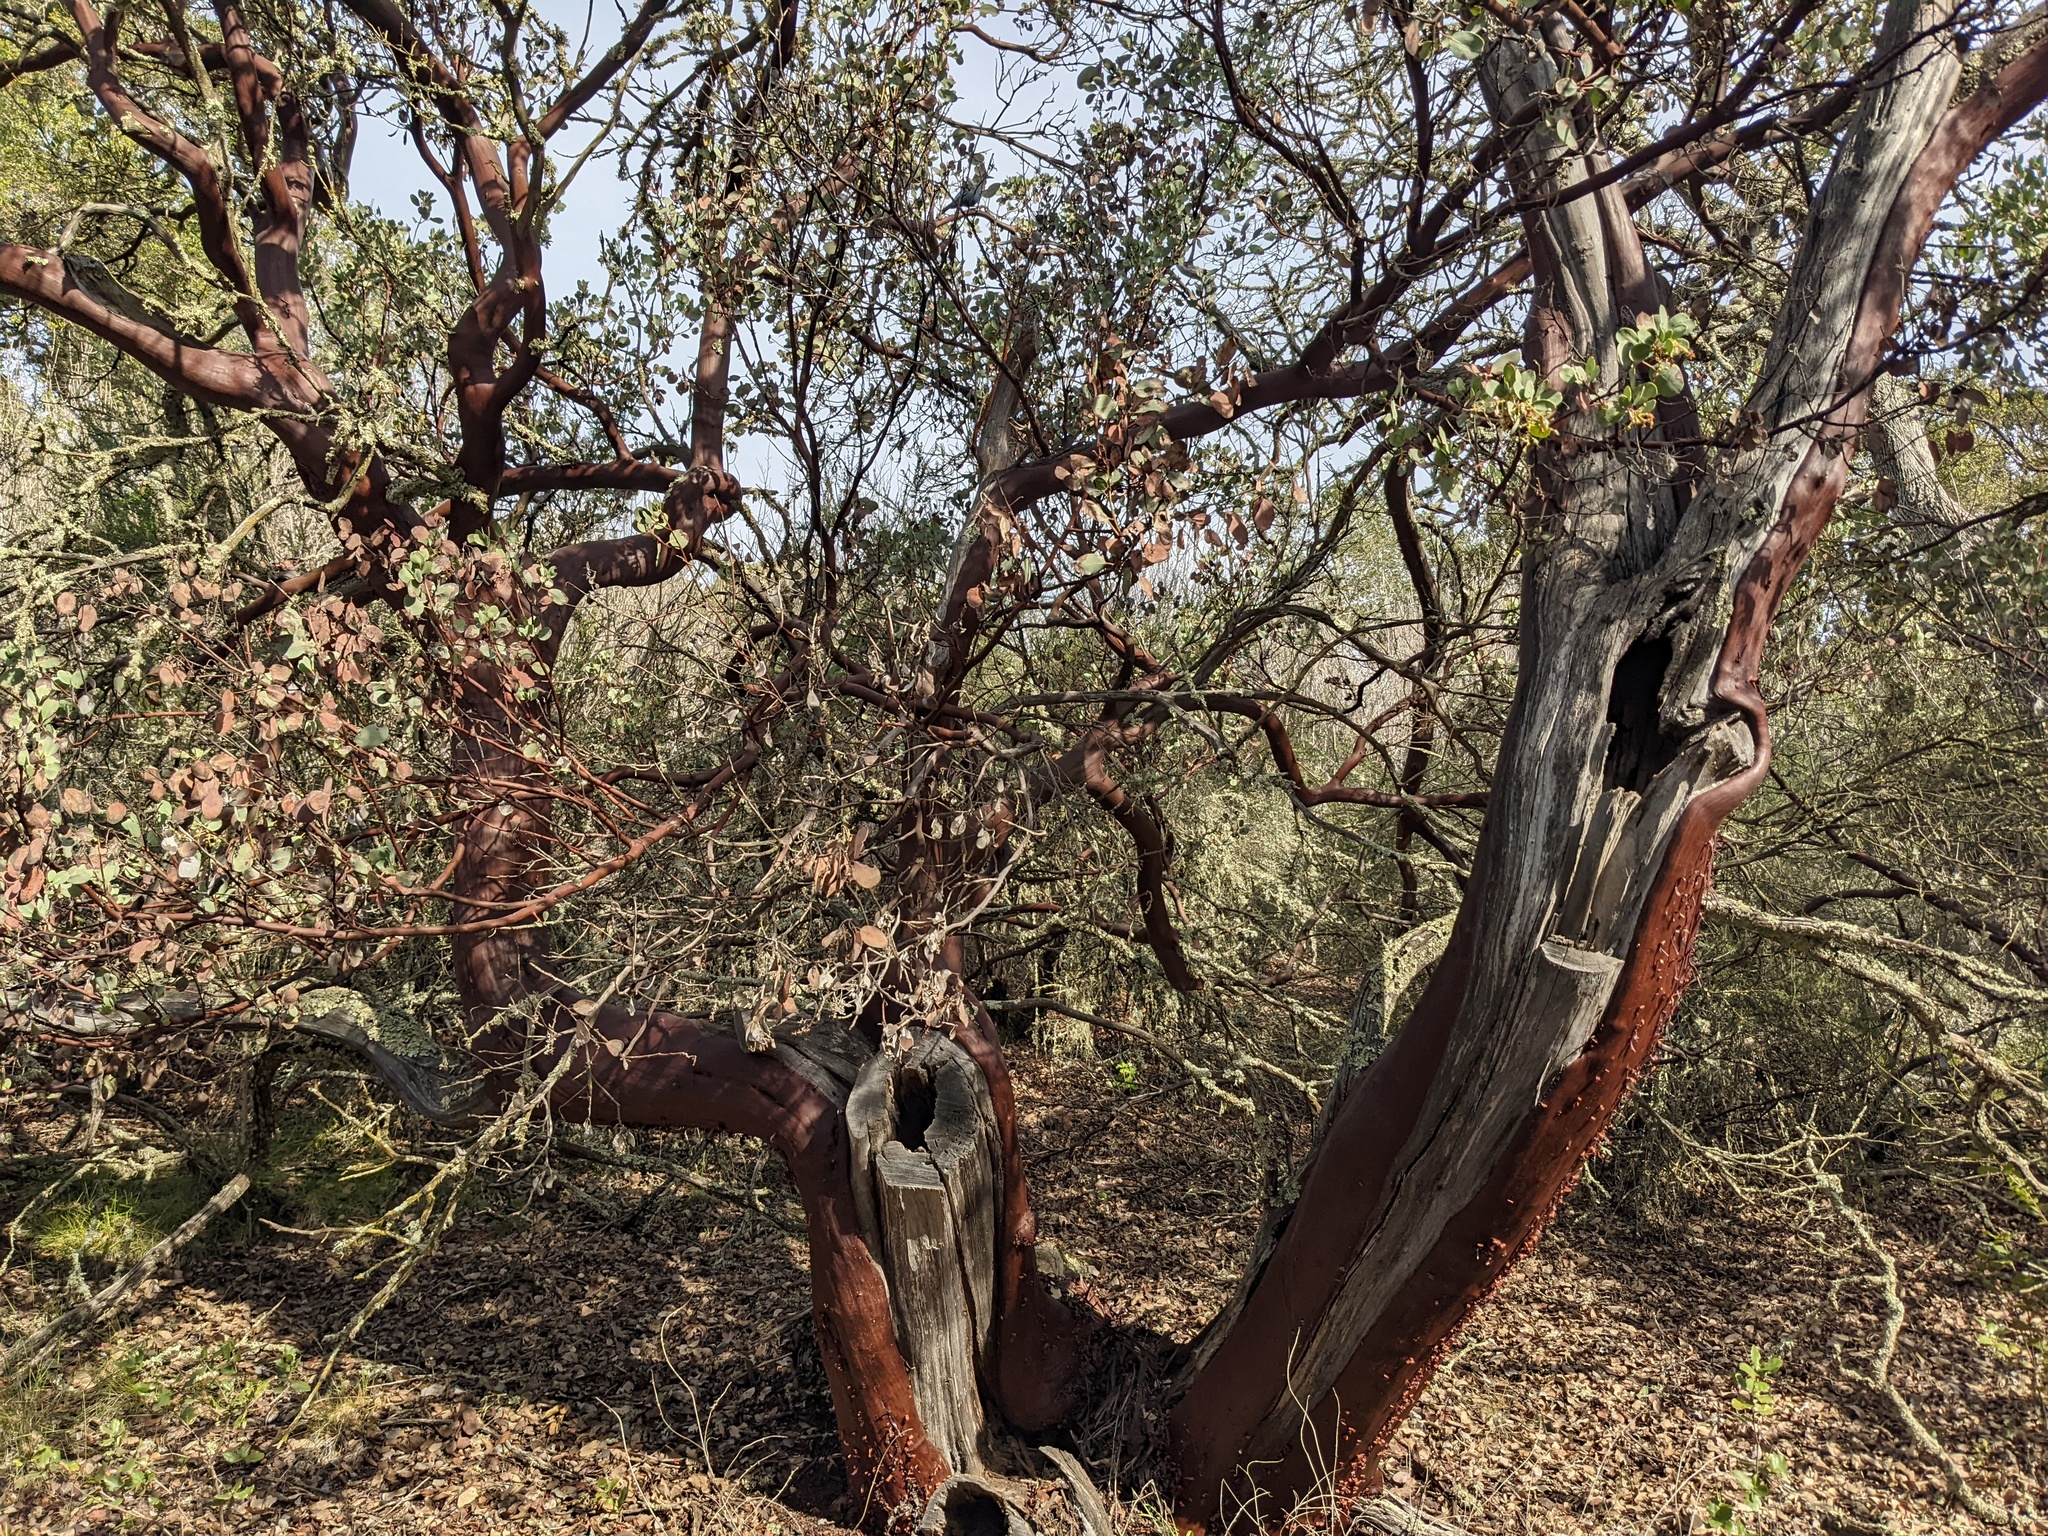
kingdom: Plantae
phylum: Tracheophyta
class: Magnoliopsida
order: Ericales
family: Ericaceae
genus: Arctostaphylos
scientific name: Arctostaphylos glauca
